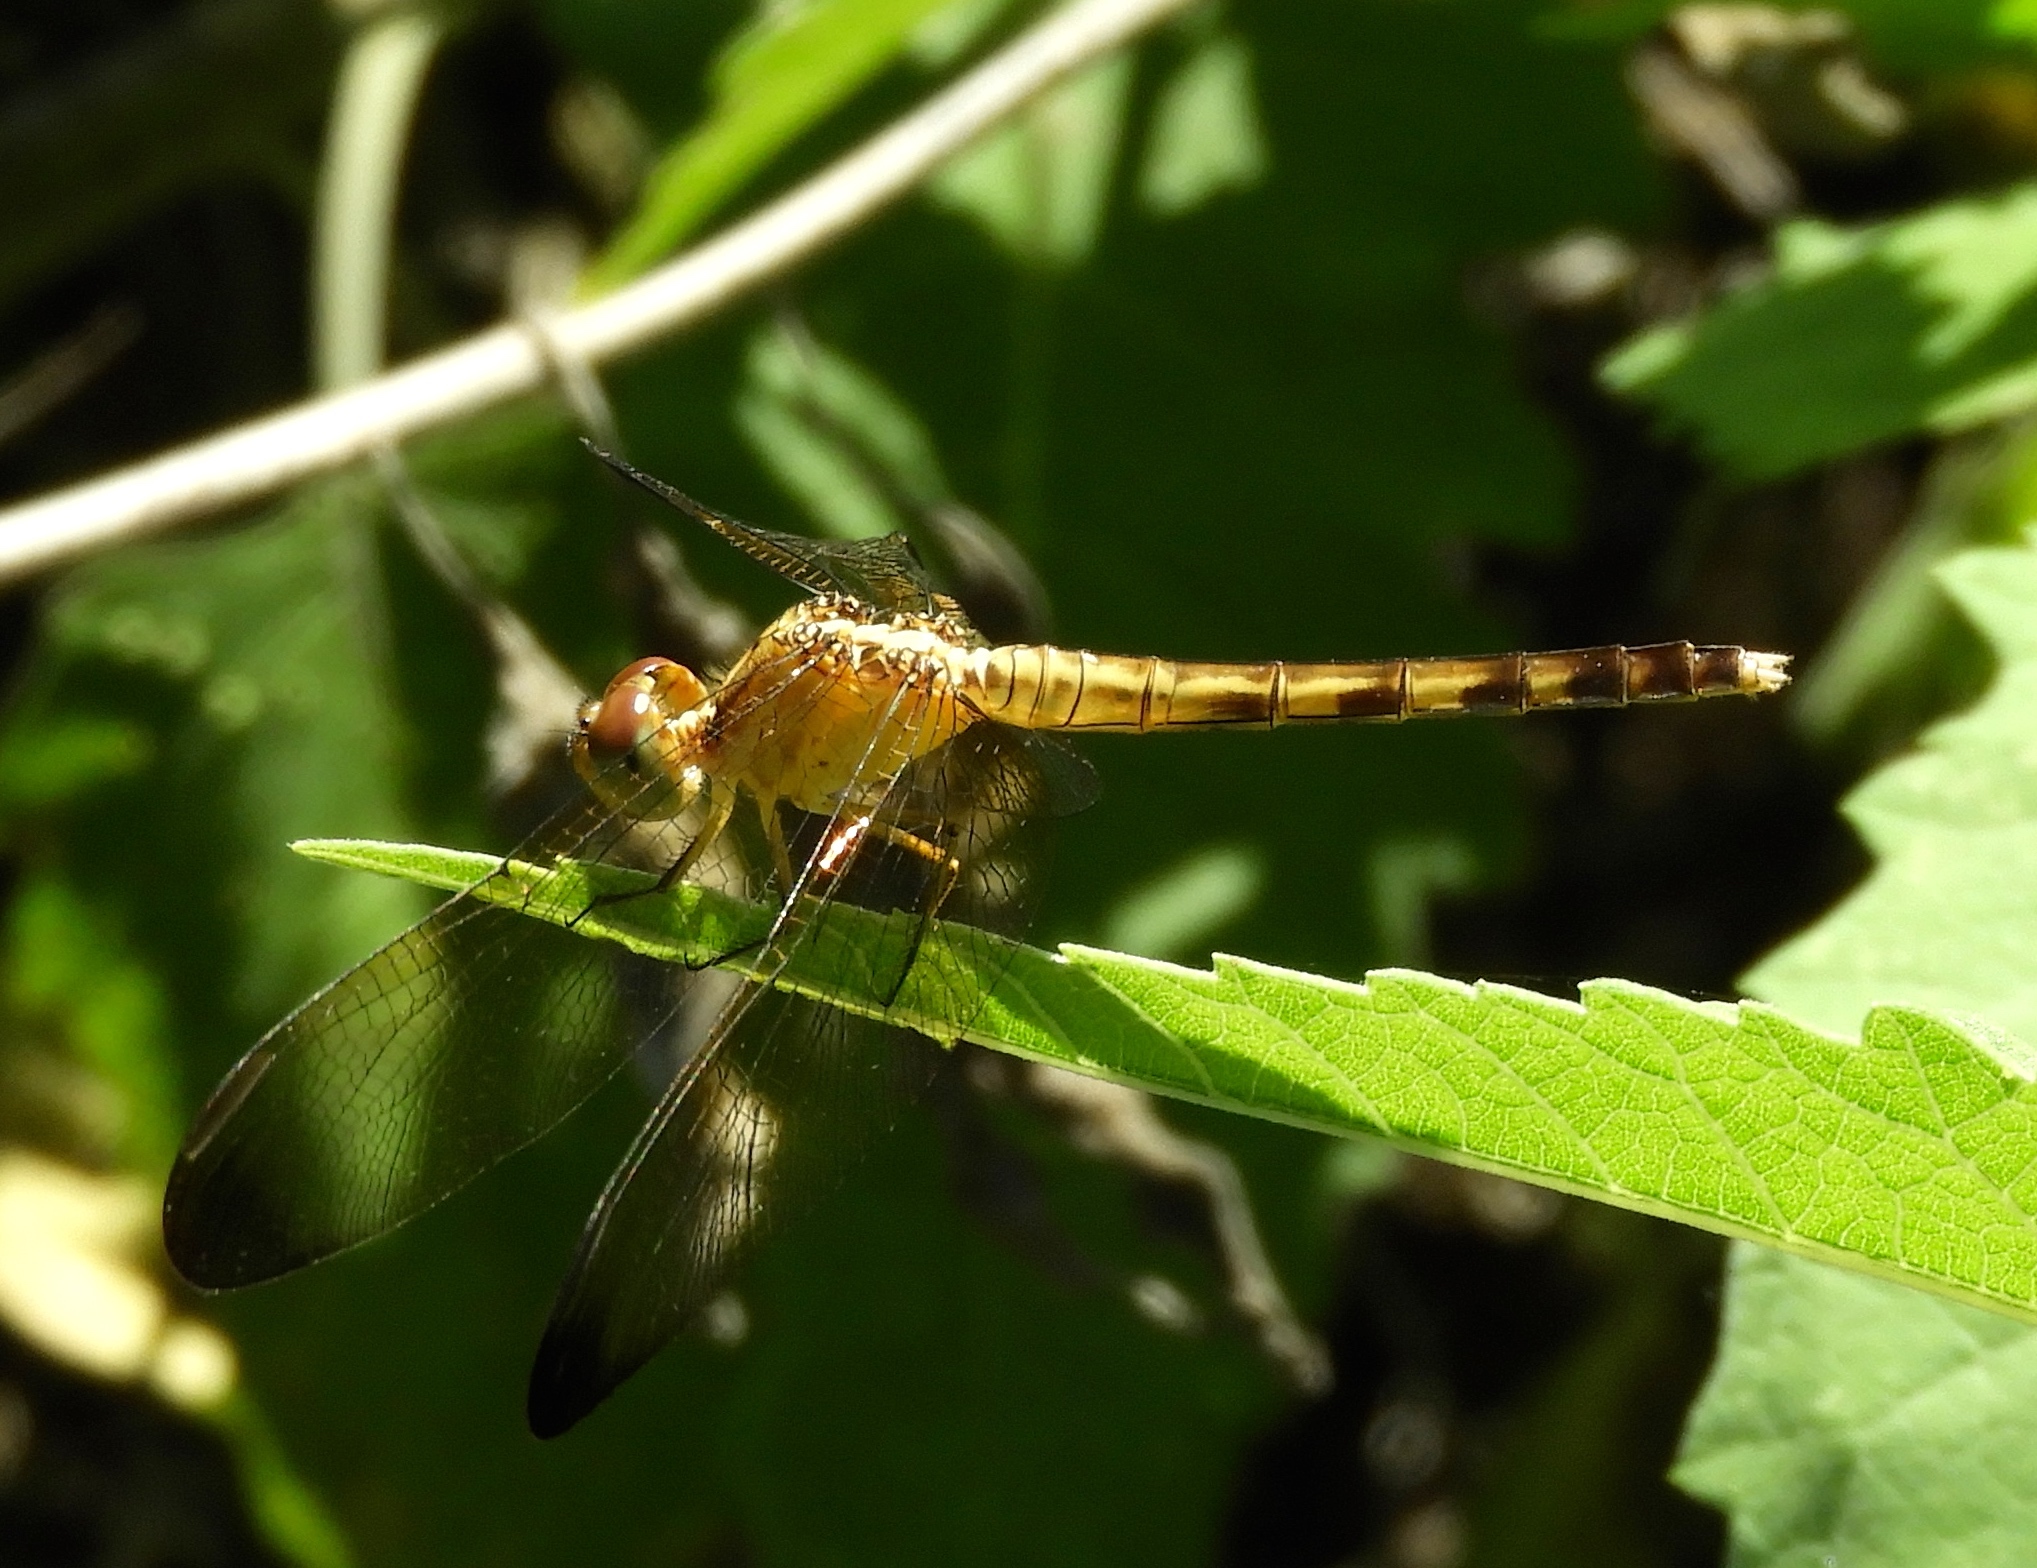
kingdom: Animalia
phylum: Arthropoda
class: Insecta
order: Odonata
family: Libellulidae
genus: Erythrodiplax
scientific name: Erythrodiplax funerea
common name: Black-winged dragonlet
